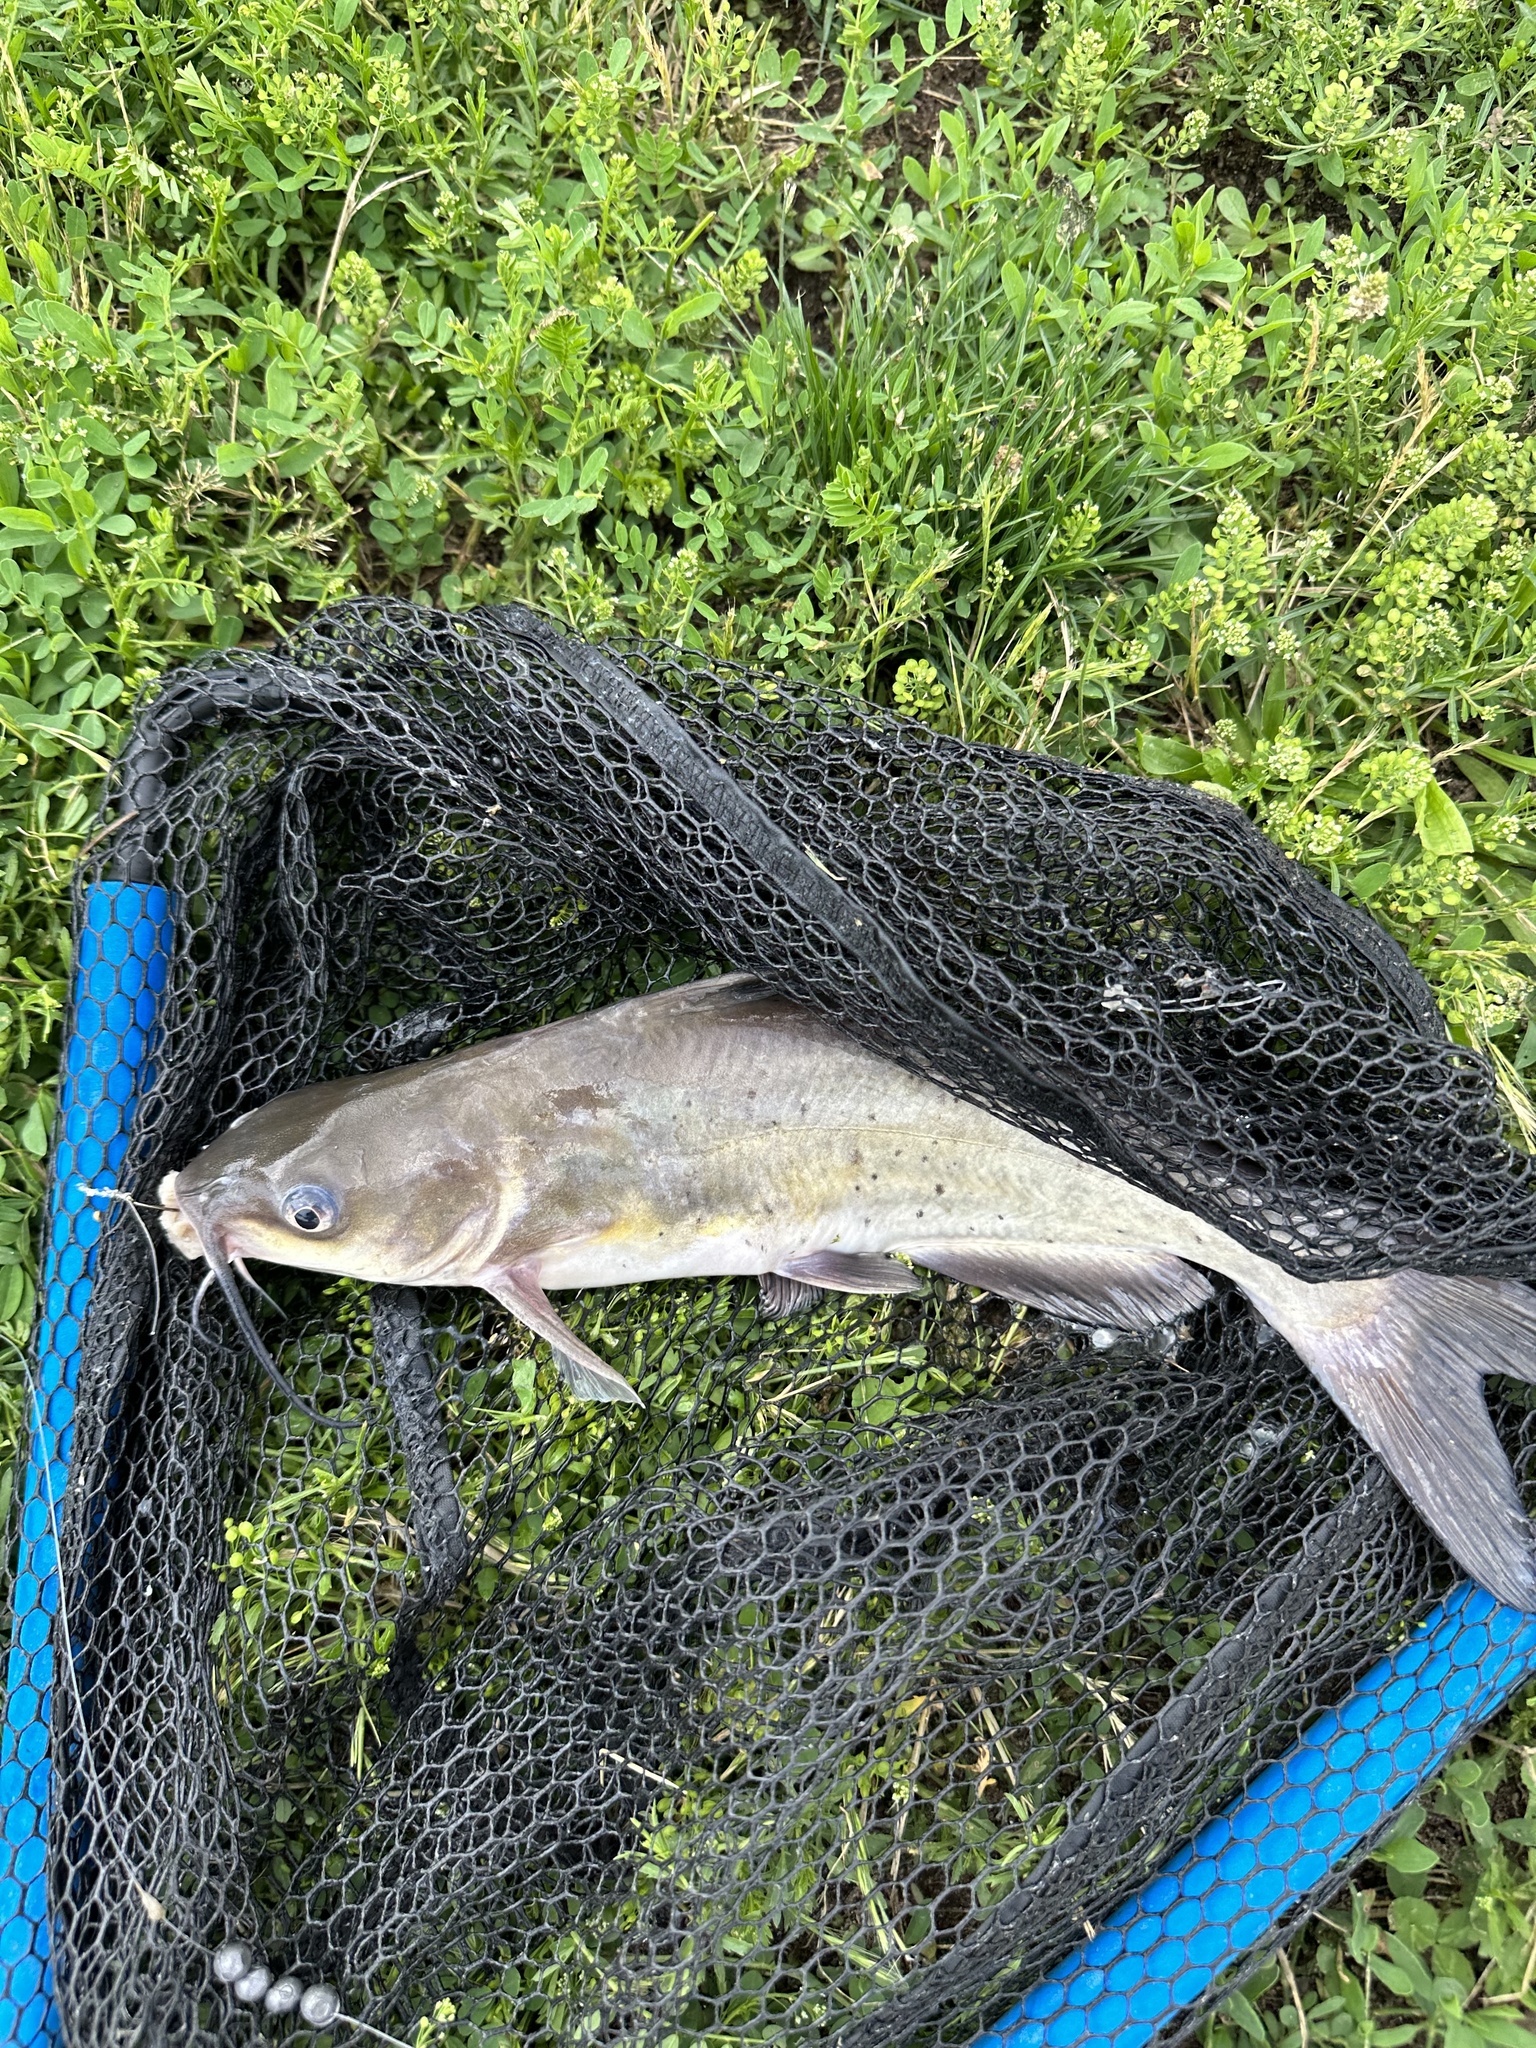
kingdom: Animalia
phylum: Chordata
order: Siluriformes
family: Ictaluridae
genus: Ictalurus
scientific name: Ictalurus punctatus
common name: Channel catfish
